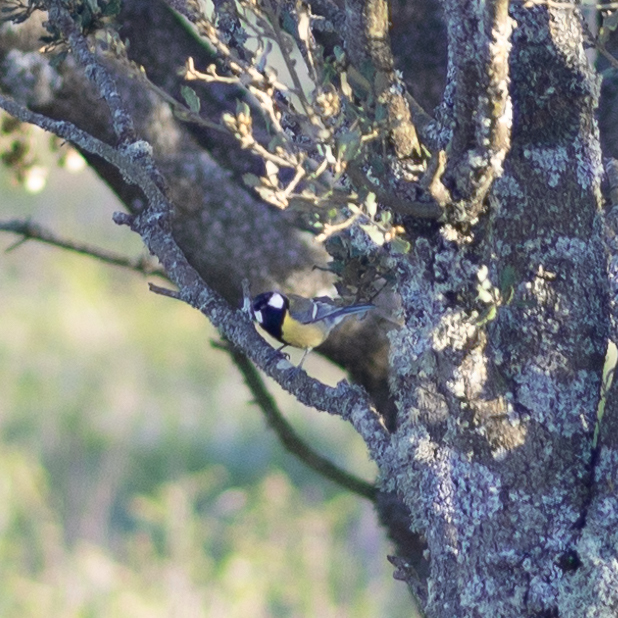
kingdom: Animalia
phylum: Chordata
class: Aves
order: Passeriformes
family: Paridae
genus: Parus
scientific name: Parus major
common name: Great tit
